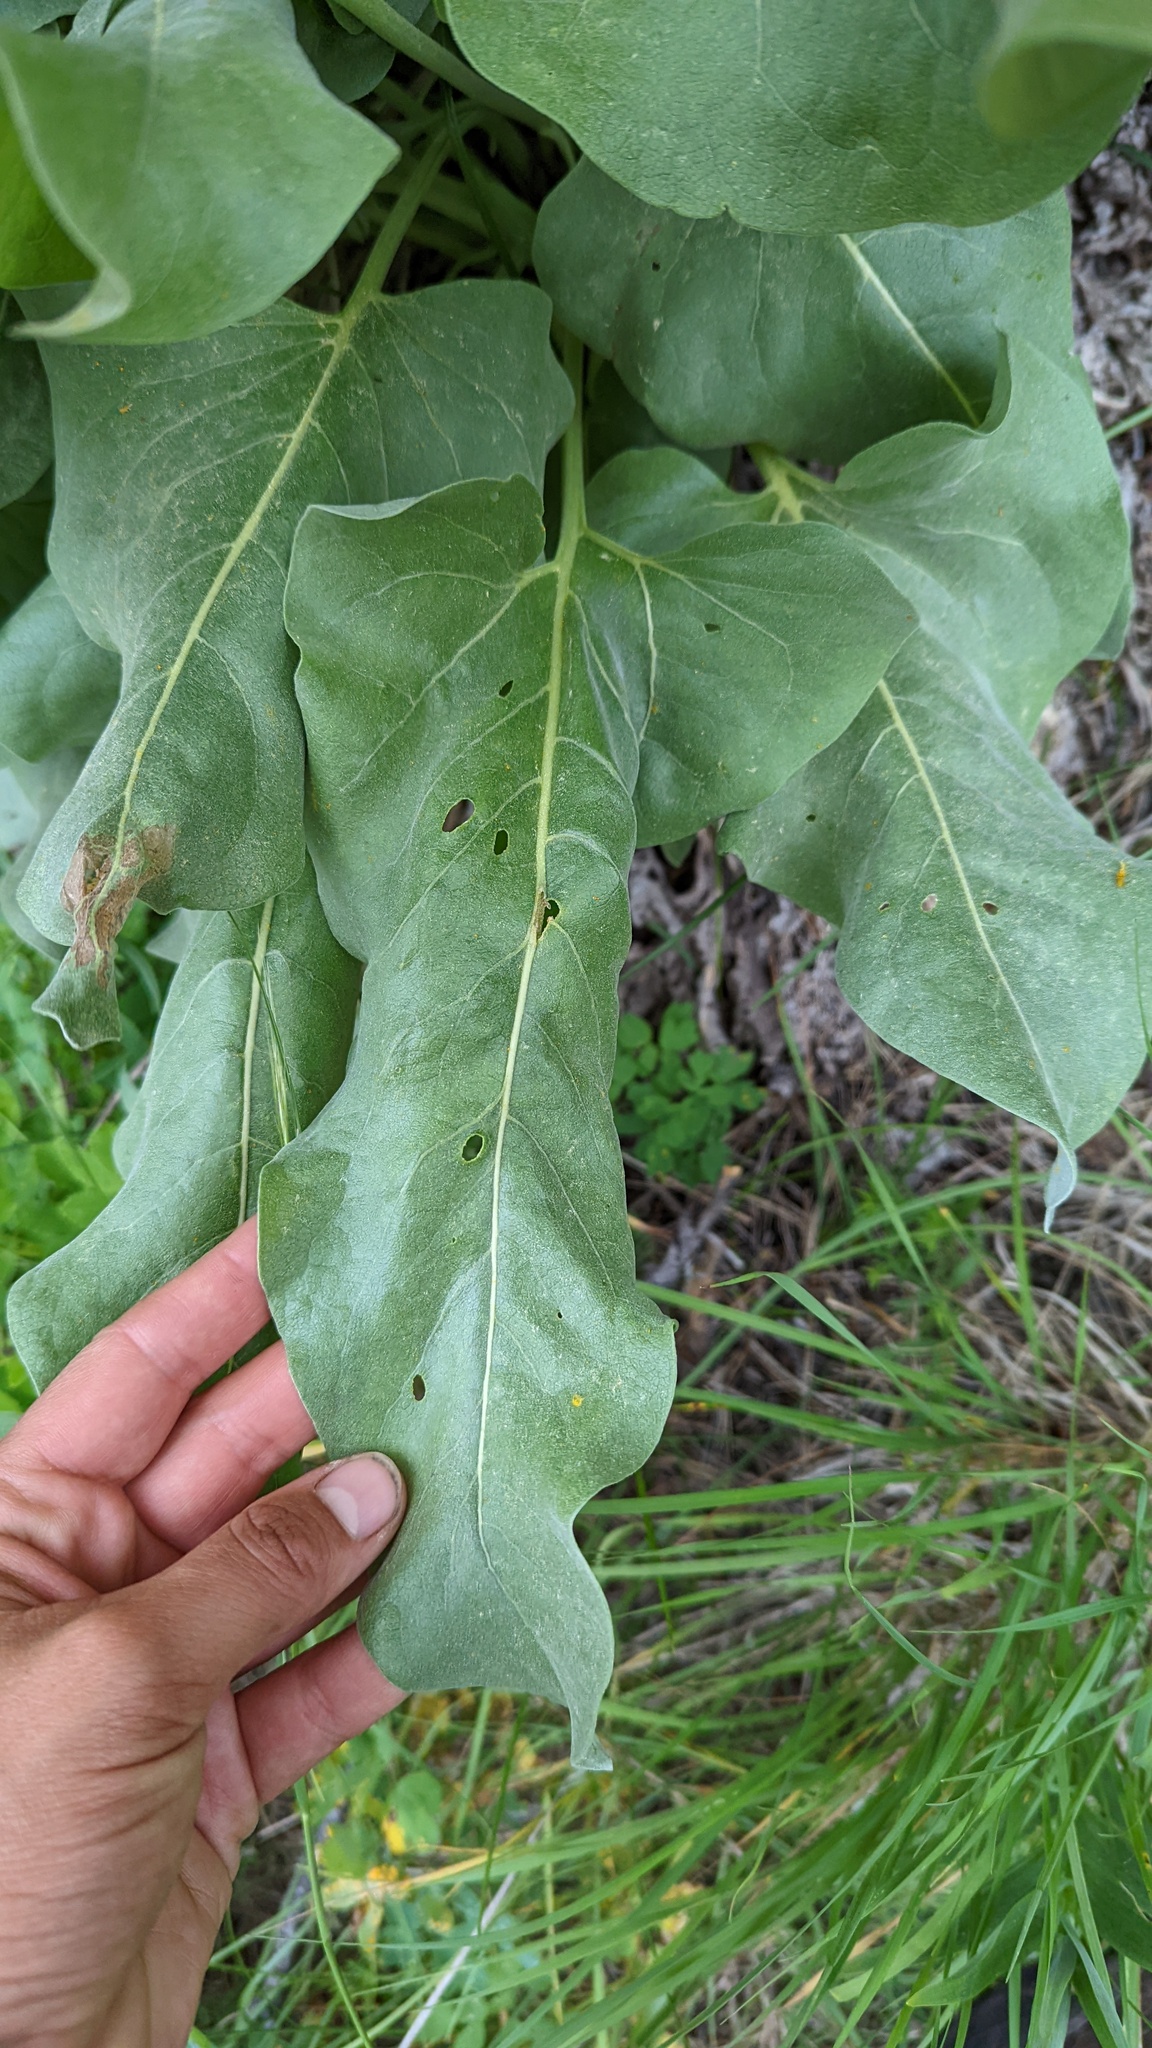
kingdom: Plantae
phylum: Tracheophyta
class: Magnoliopsida
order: Asterales
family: Asteraceae
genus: Wyethia
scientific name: Wyethia sagittata
